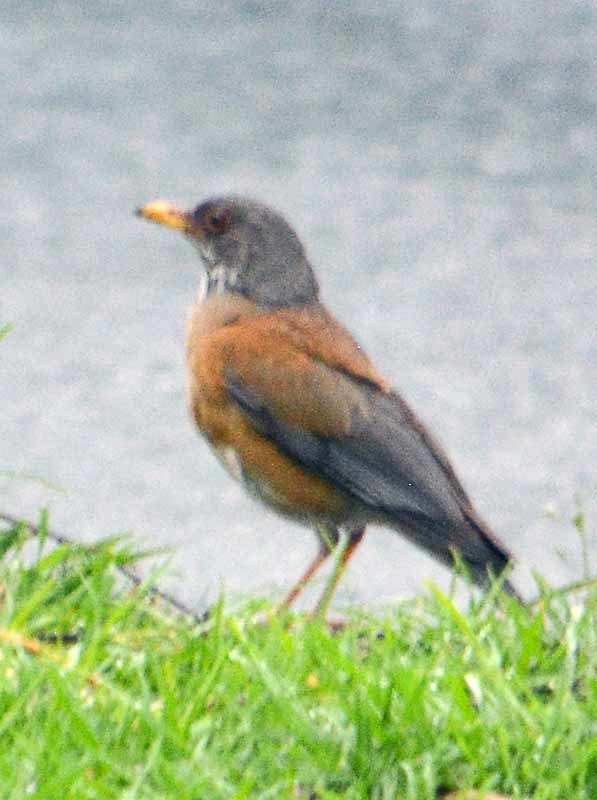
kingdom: Animalia
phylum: Chordata
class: Aves
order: Passeriformes
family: Turdidae
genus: Turdus
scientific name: Turdus rufopalliatus
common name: Rufous-backed robin
